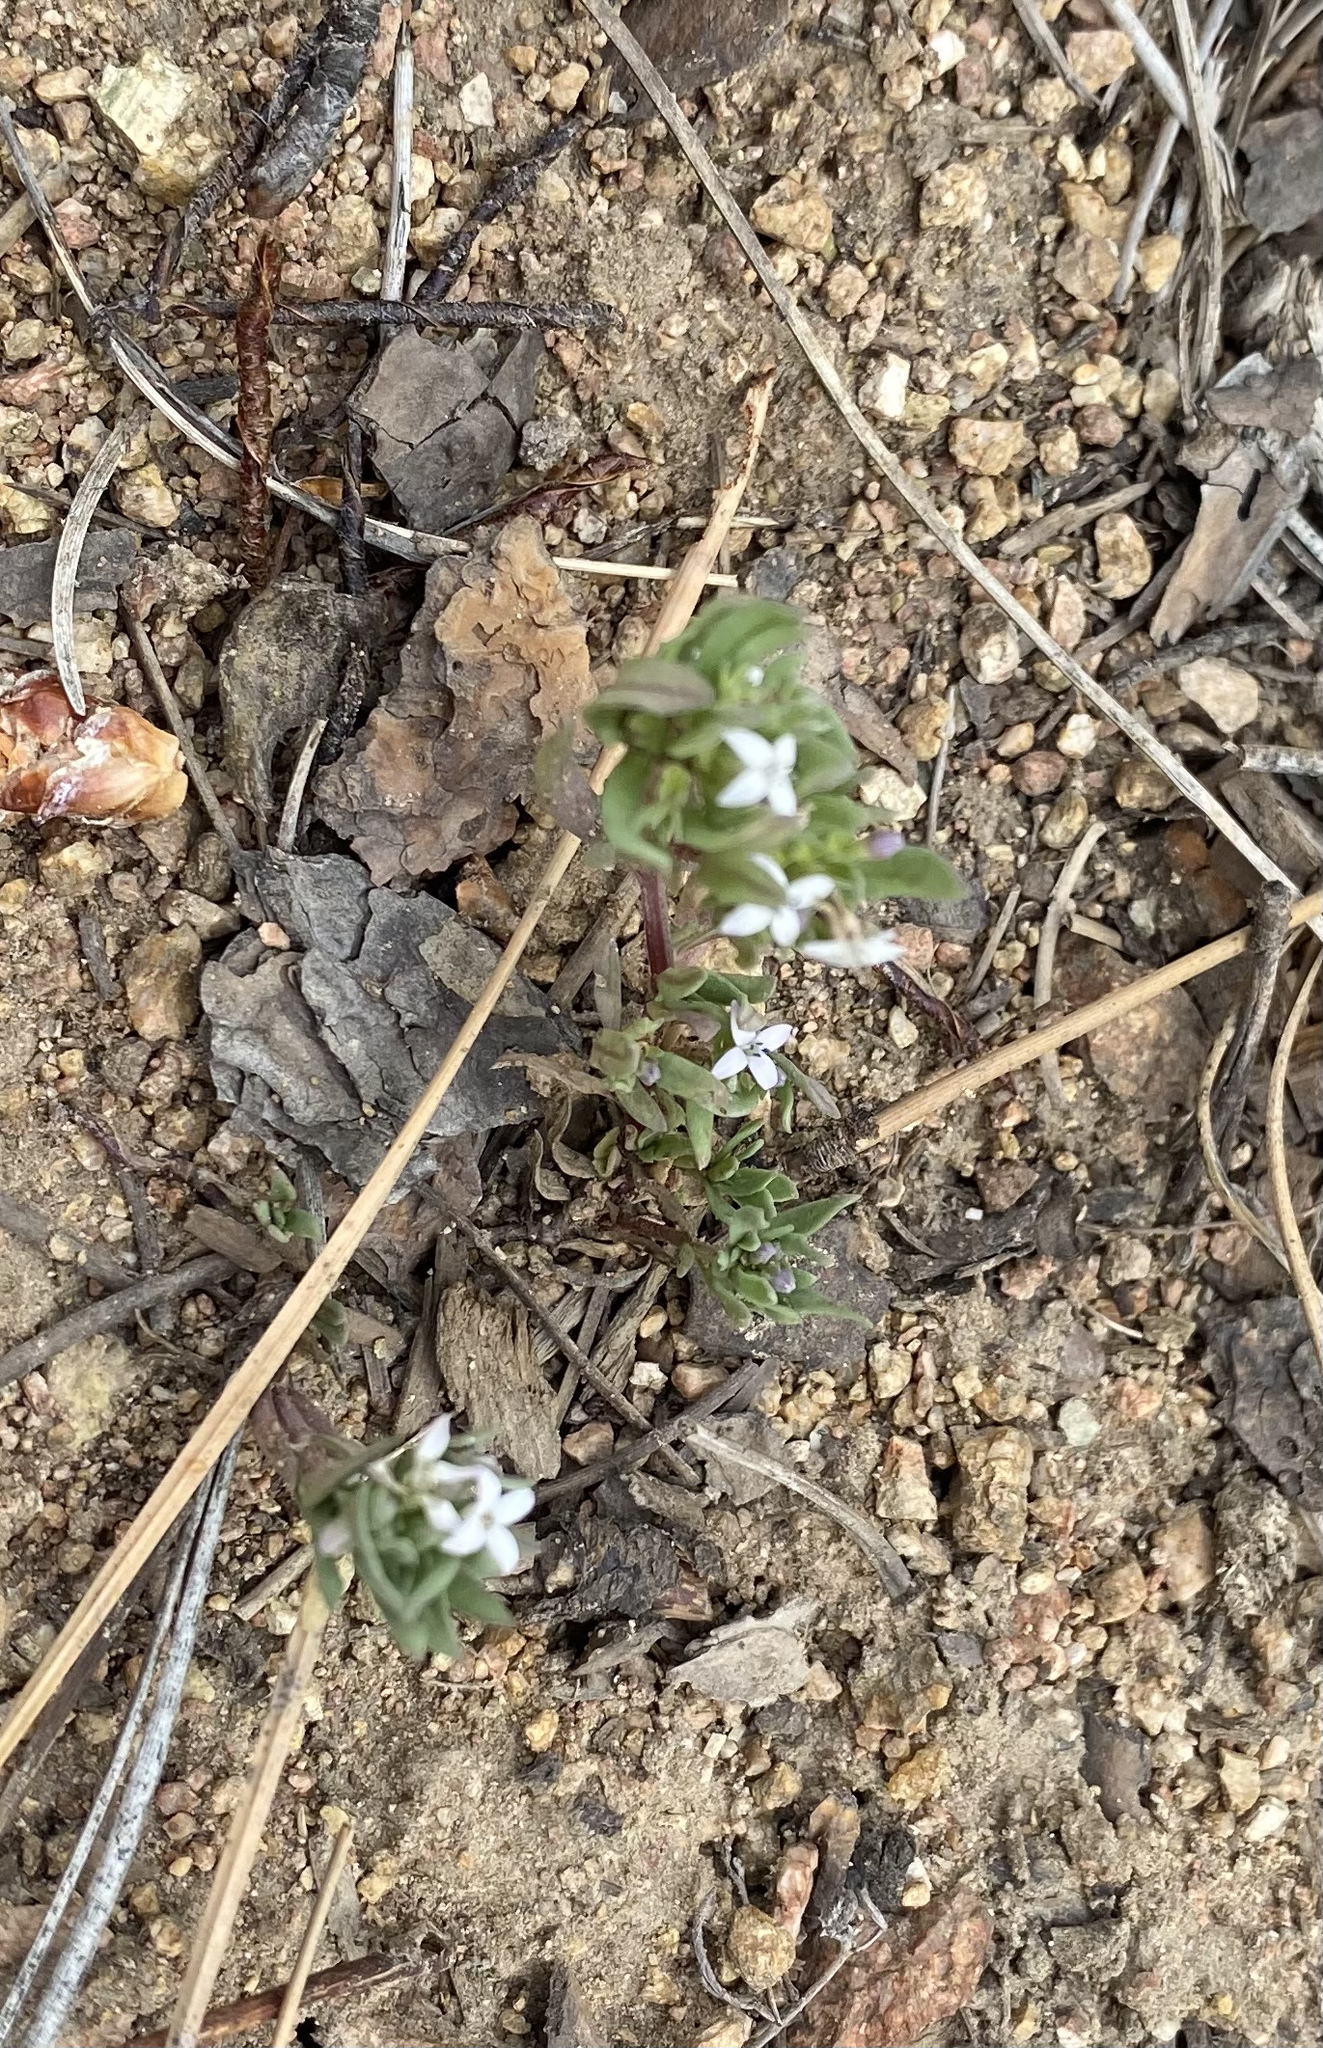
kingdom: Plantae
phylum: Tracheophyta
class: Magnoliopsida
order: Gentianales
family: Rubiaceae
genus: Houstonia
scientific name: Houstonia wrightii
